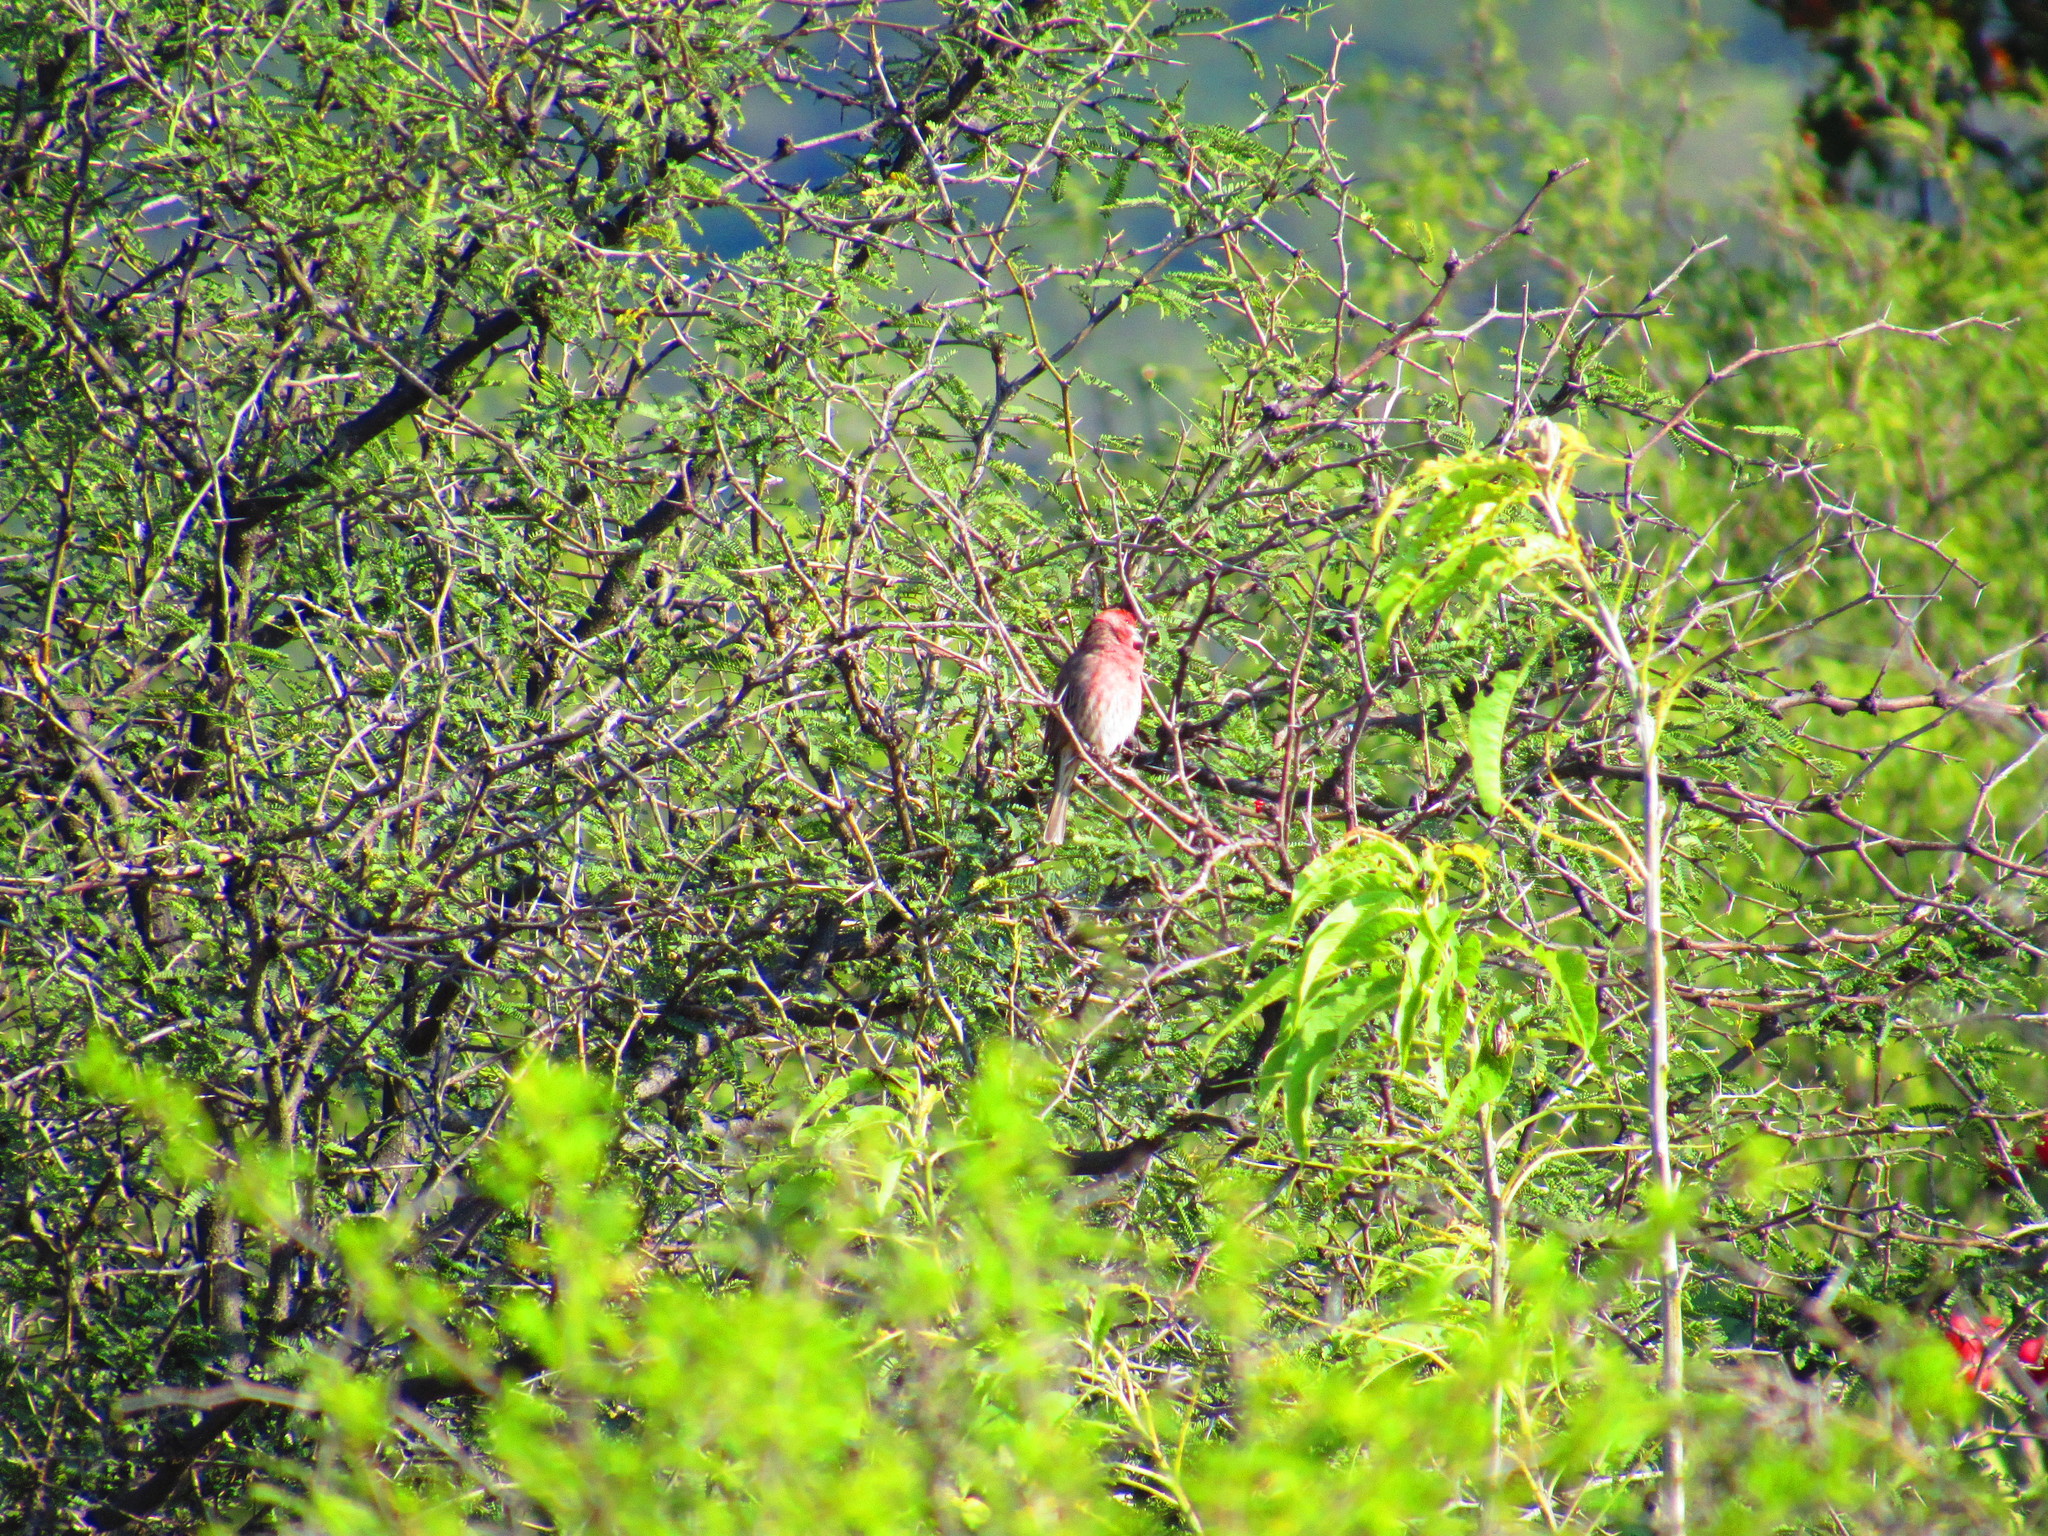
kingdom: Animalia
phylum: Chordata
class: Aves
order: Passeriformes
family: Fringillidae
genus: Haemorhous
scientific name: Haemorhous mexicanus
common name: House finch
